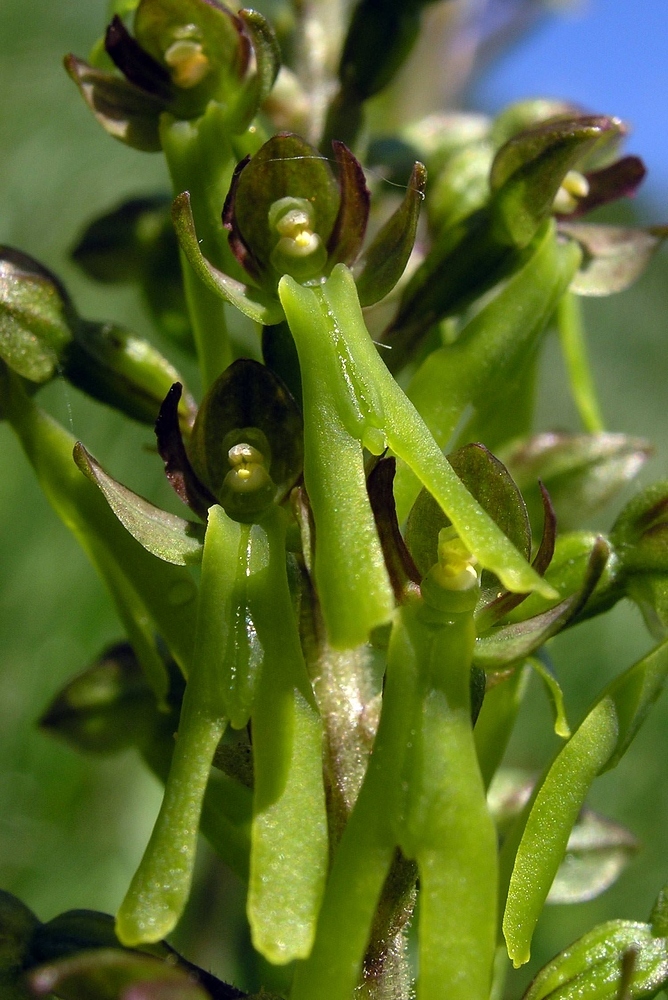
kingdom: Plantae
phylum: Tracheophyta
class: Liliopsida
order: Asparagales
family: Orchidaceae
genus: Neottia
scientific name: Neottia ovata
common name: Common twayblade
